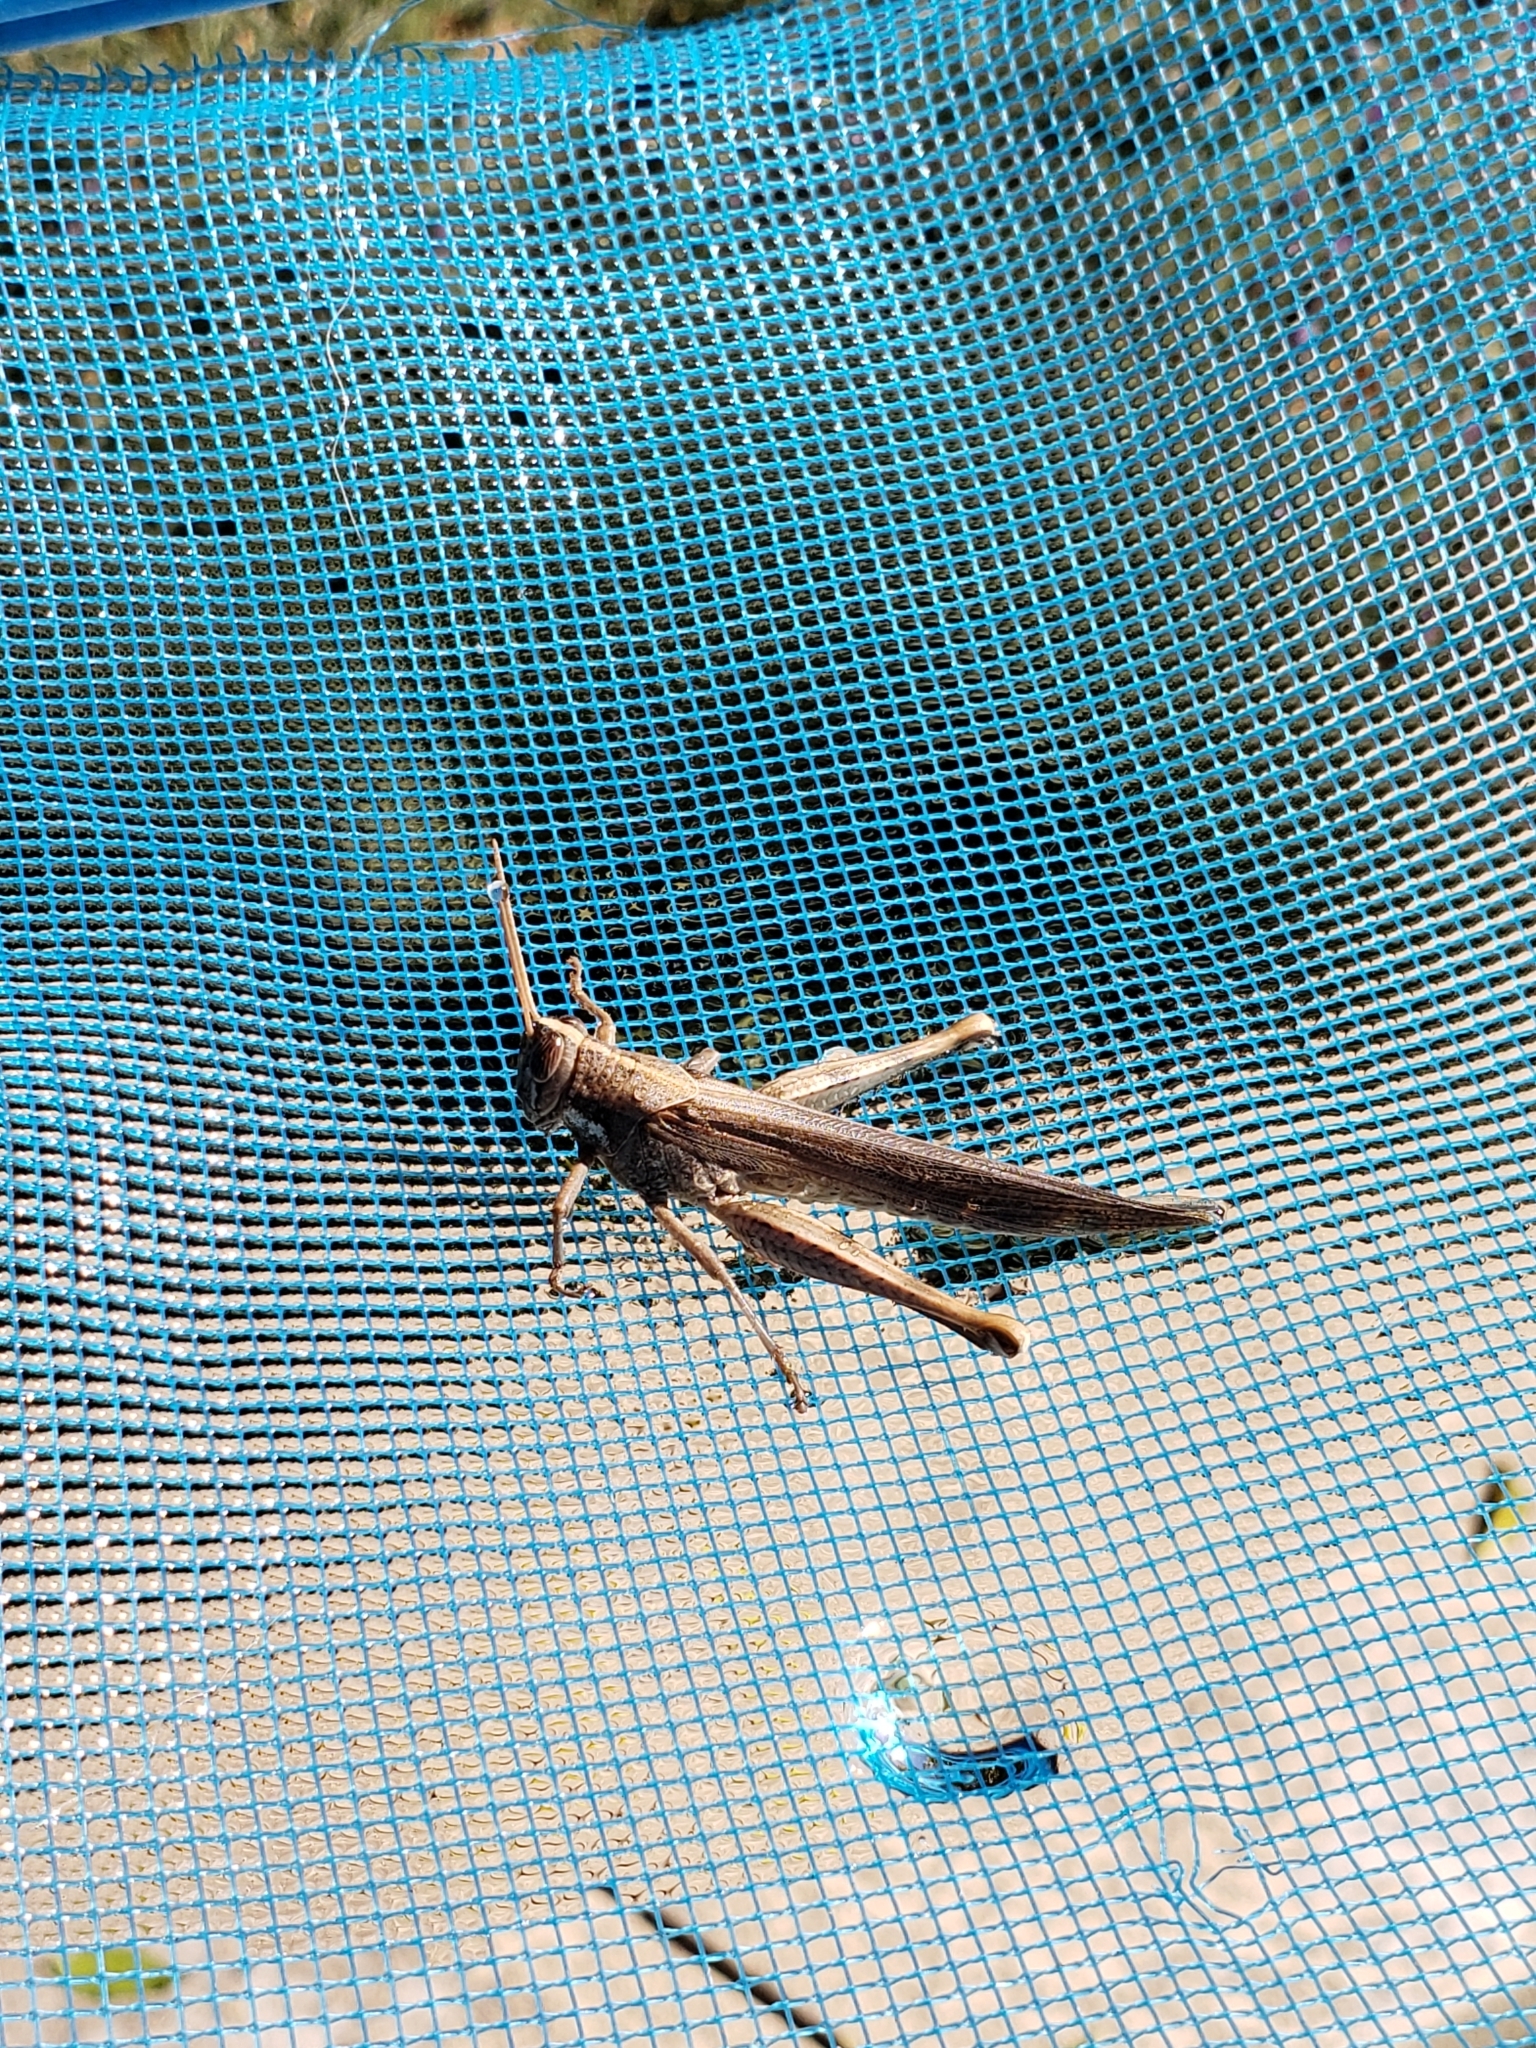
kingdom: Animalia
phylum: Arthropoda
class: Insecta
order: Orthoptera
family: Acrididae
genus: Schistocerca
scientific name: Schistocerca nitens
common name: Vagrant grasshopper
